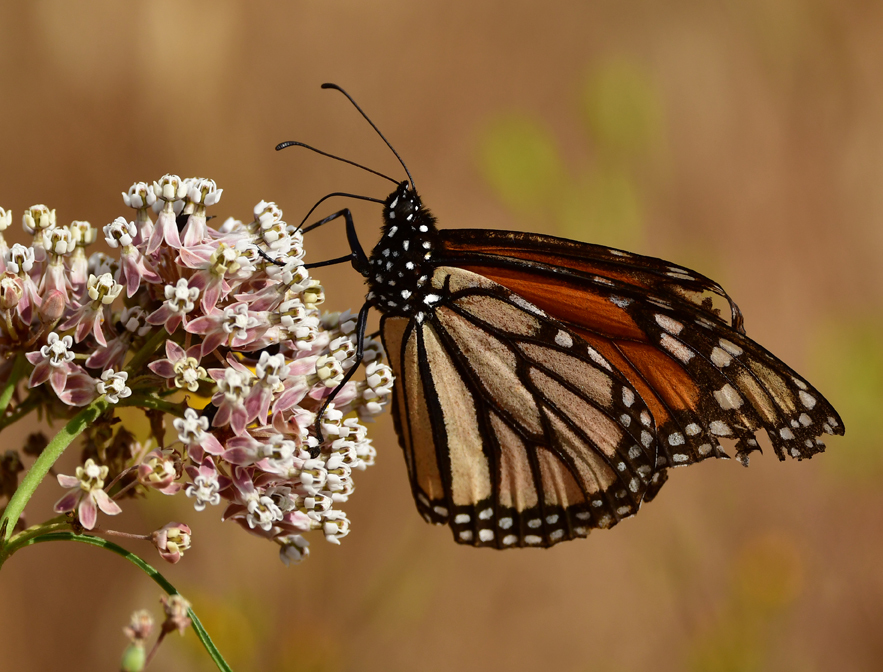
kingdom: Animalia
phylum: Arthropoda
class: Insecta
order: Lepidoptera
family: Nymphalidae
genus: Danaus
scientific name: Danaus plexippus
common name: Monarch
